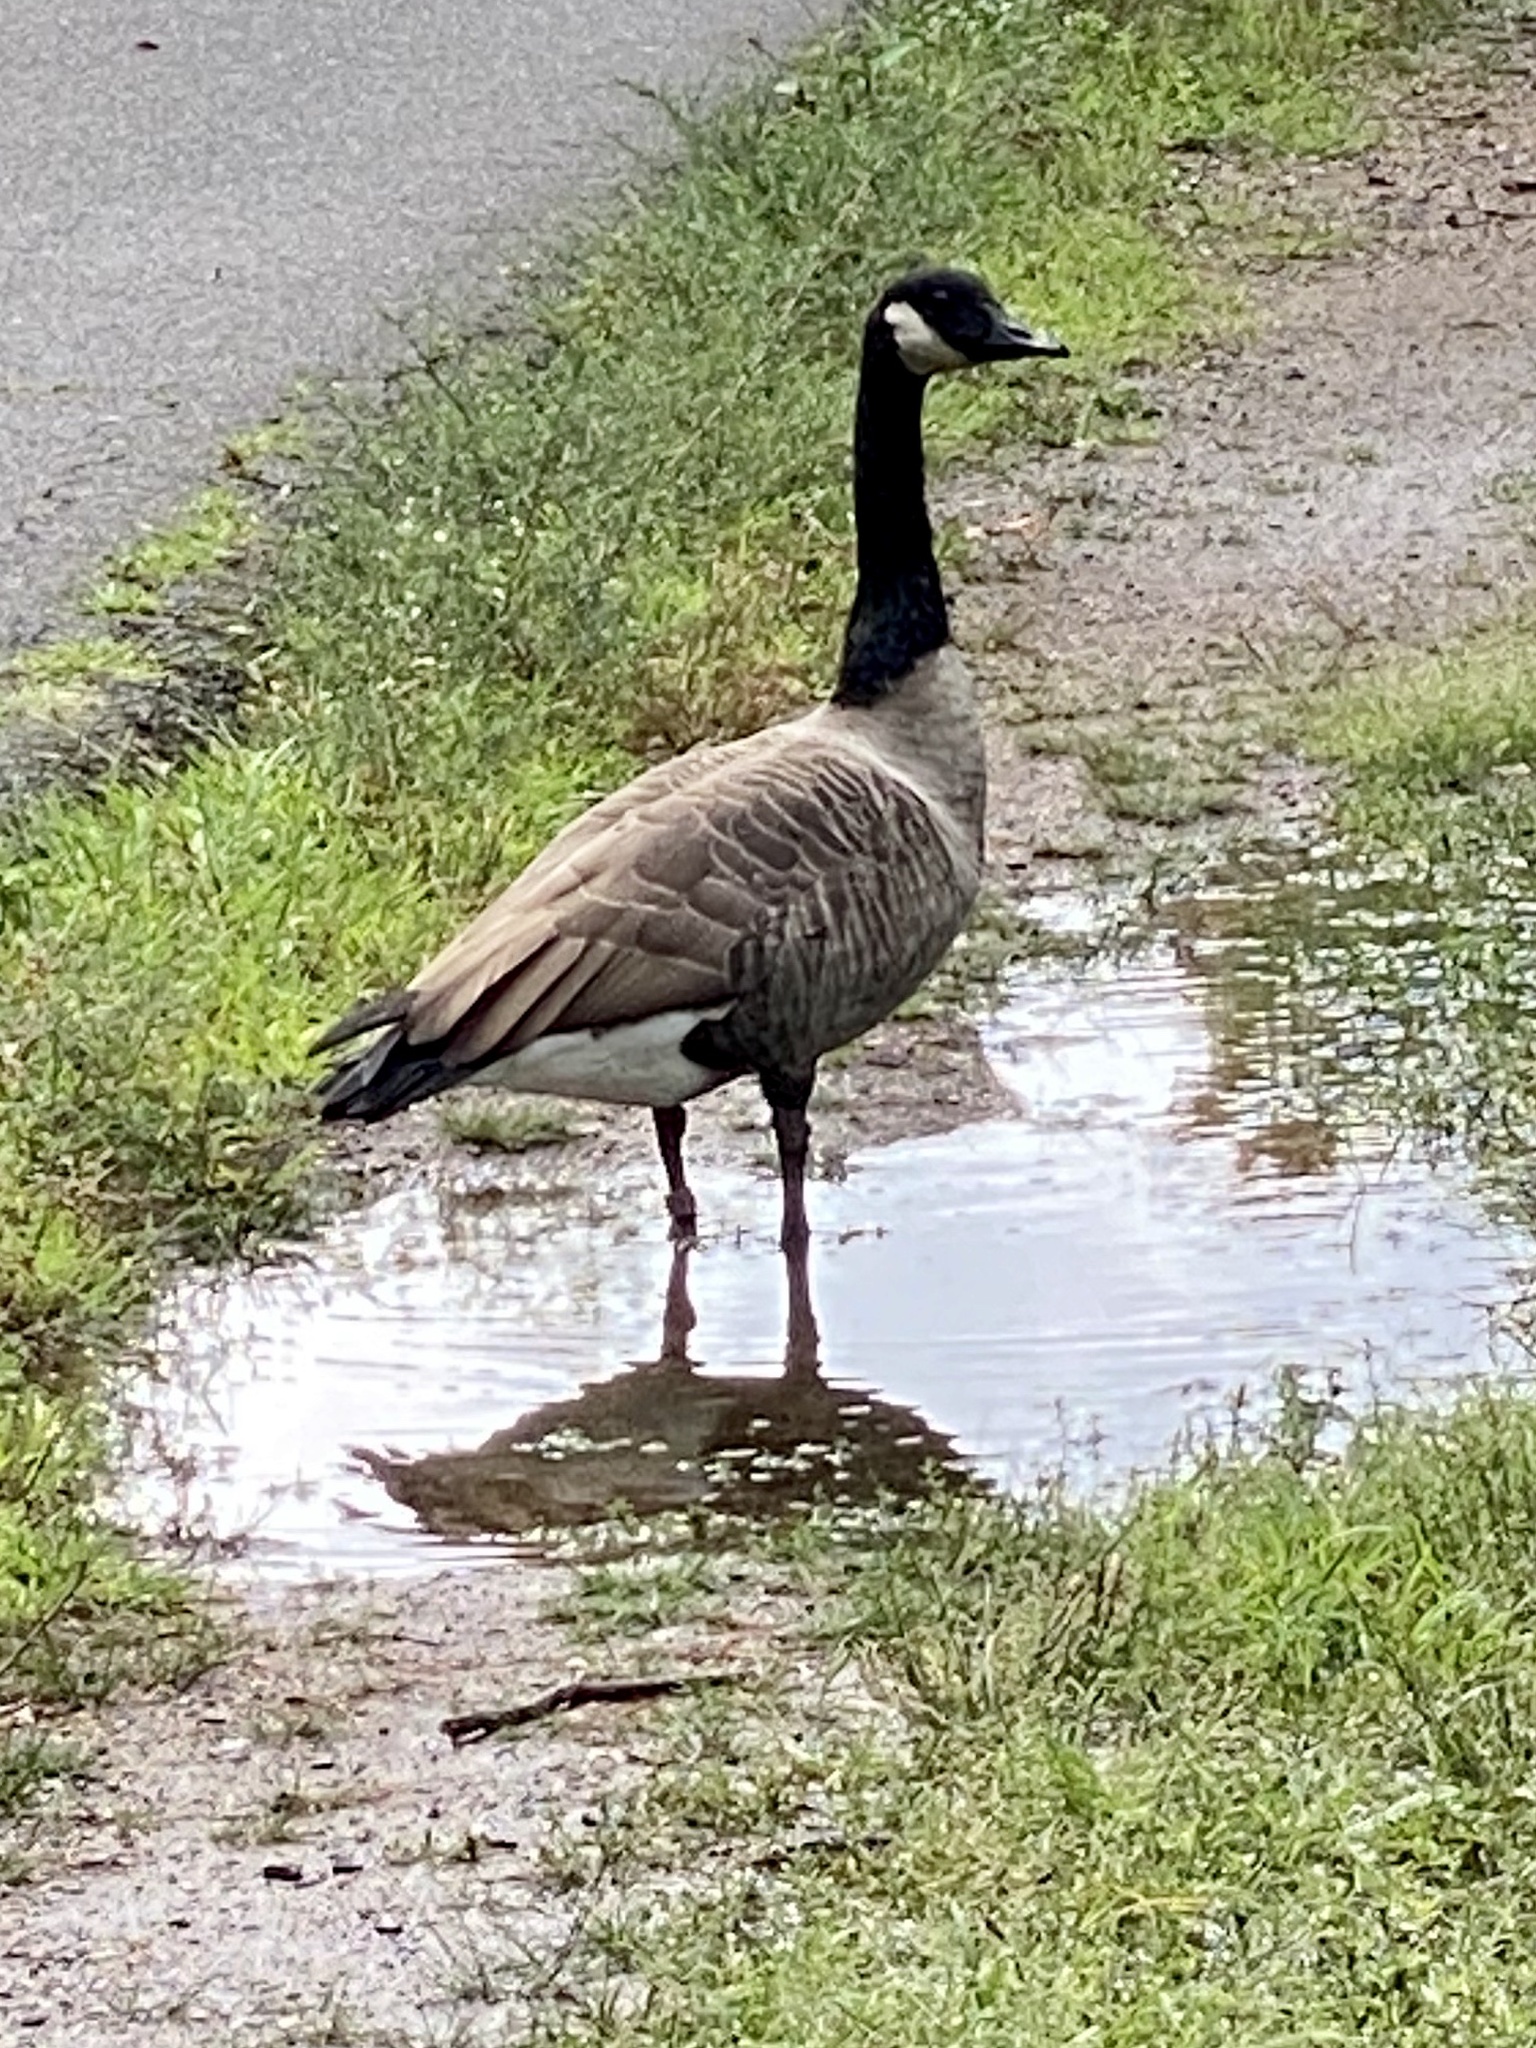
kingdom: Animalia
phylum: Chordata
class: Aves
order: Anseriformes
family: Anatidae
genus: Branta
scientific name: Branta canadensis
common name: Canada goose
